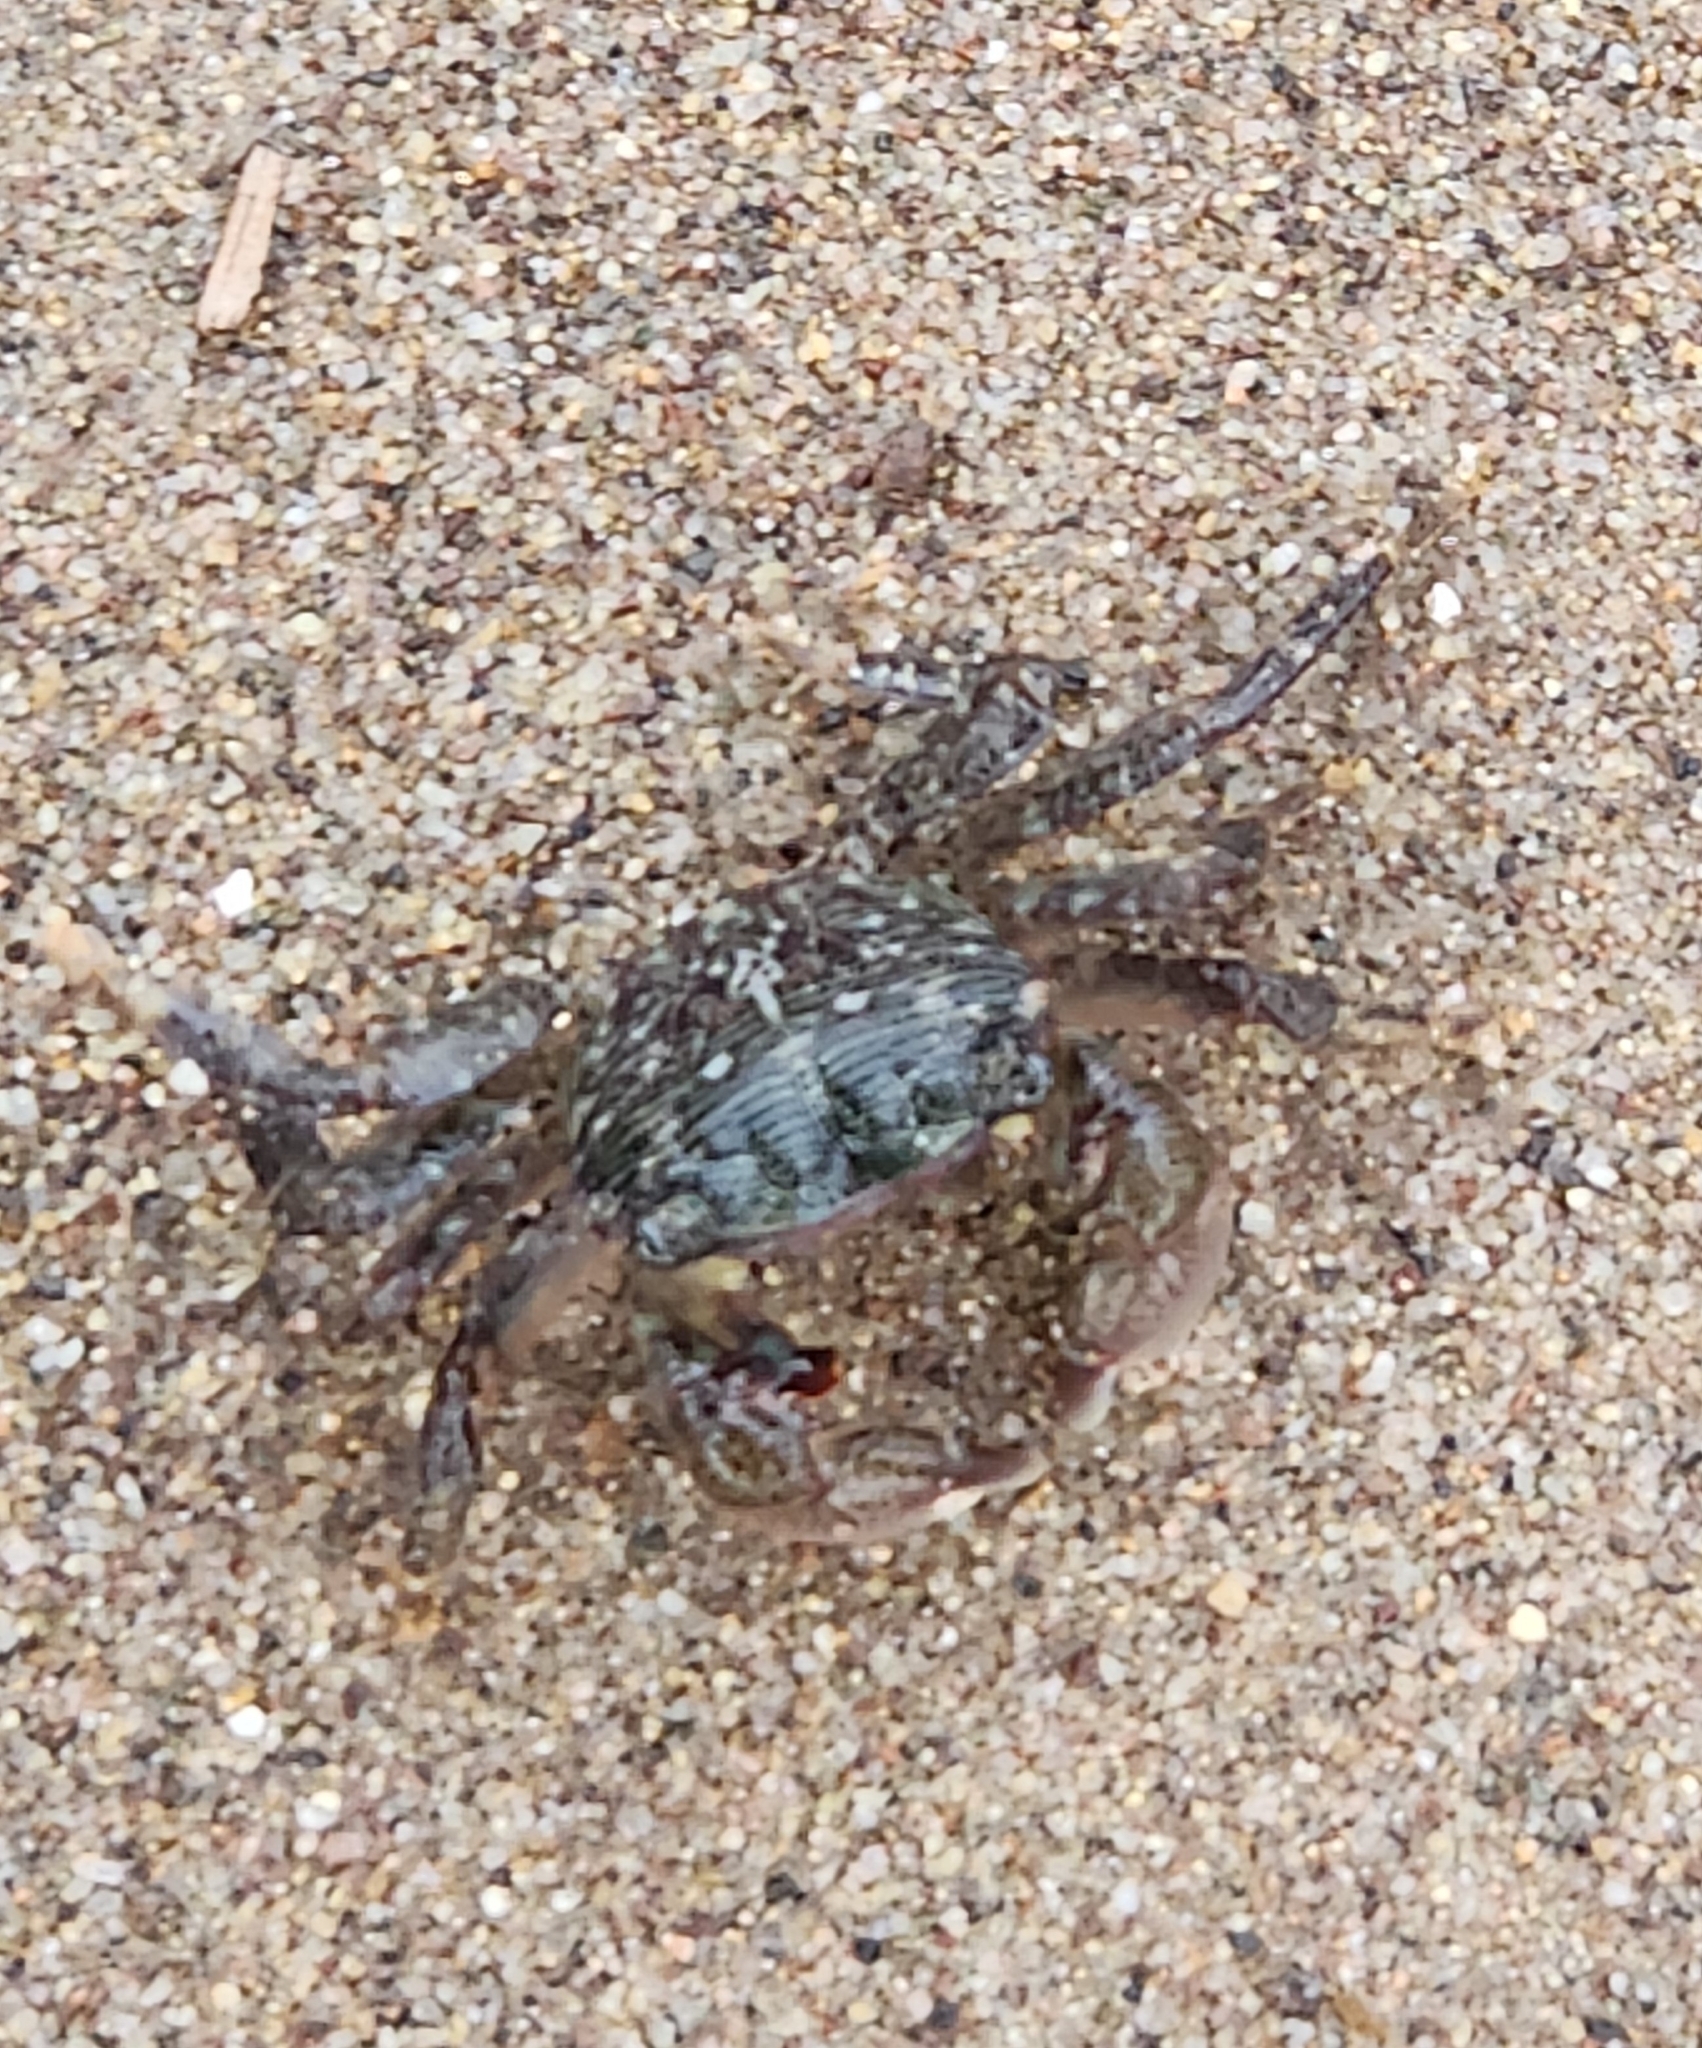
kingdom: Animalia
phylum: Arthropoda
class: Malacostraca
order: Decapoda
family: Grapsidae
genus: Pachygrapsus
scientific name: Pachygrapsus crassipes
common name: Striped shore crab
